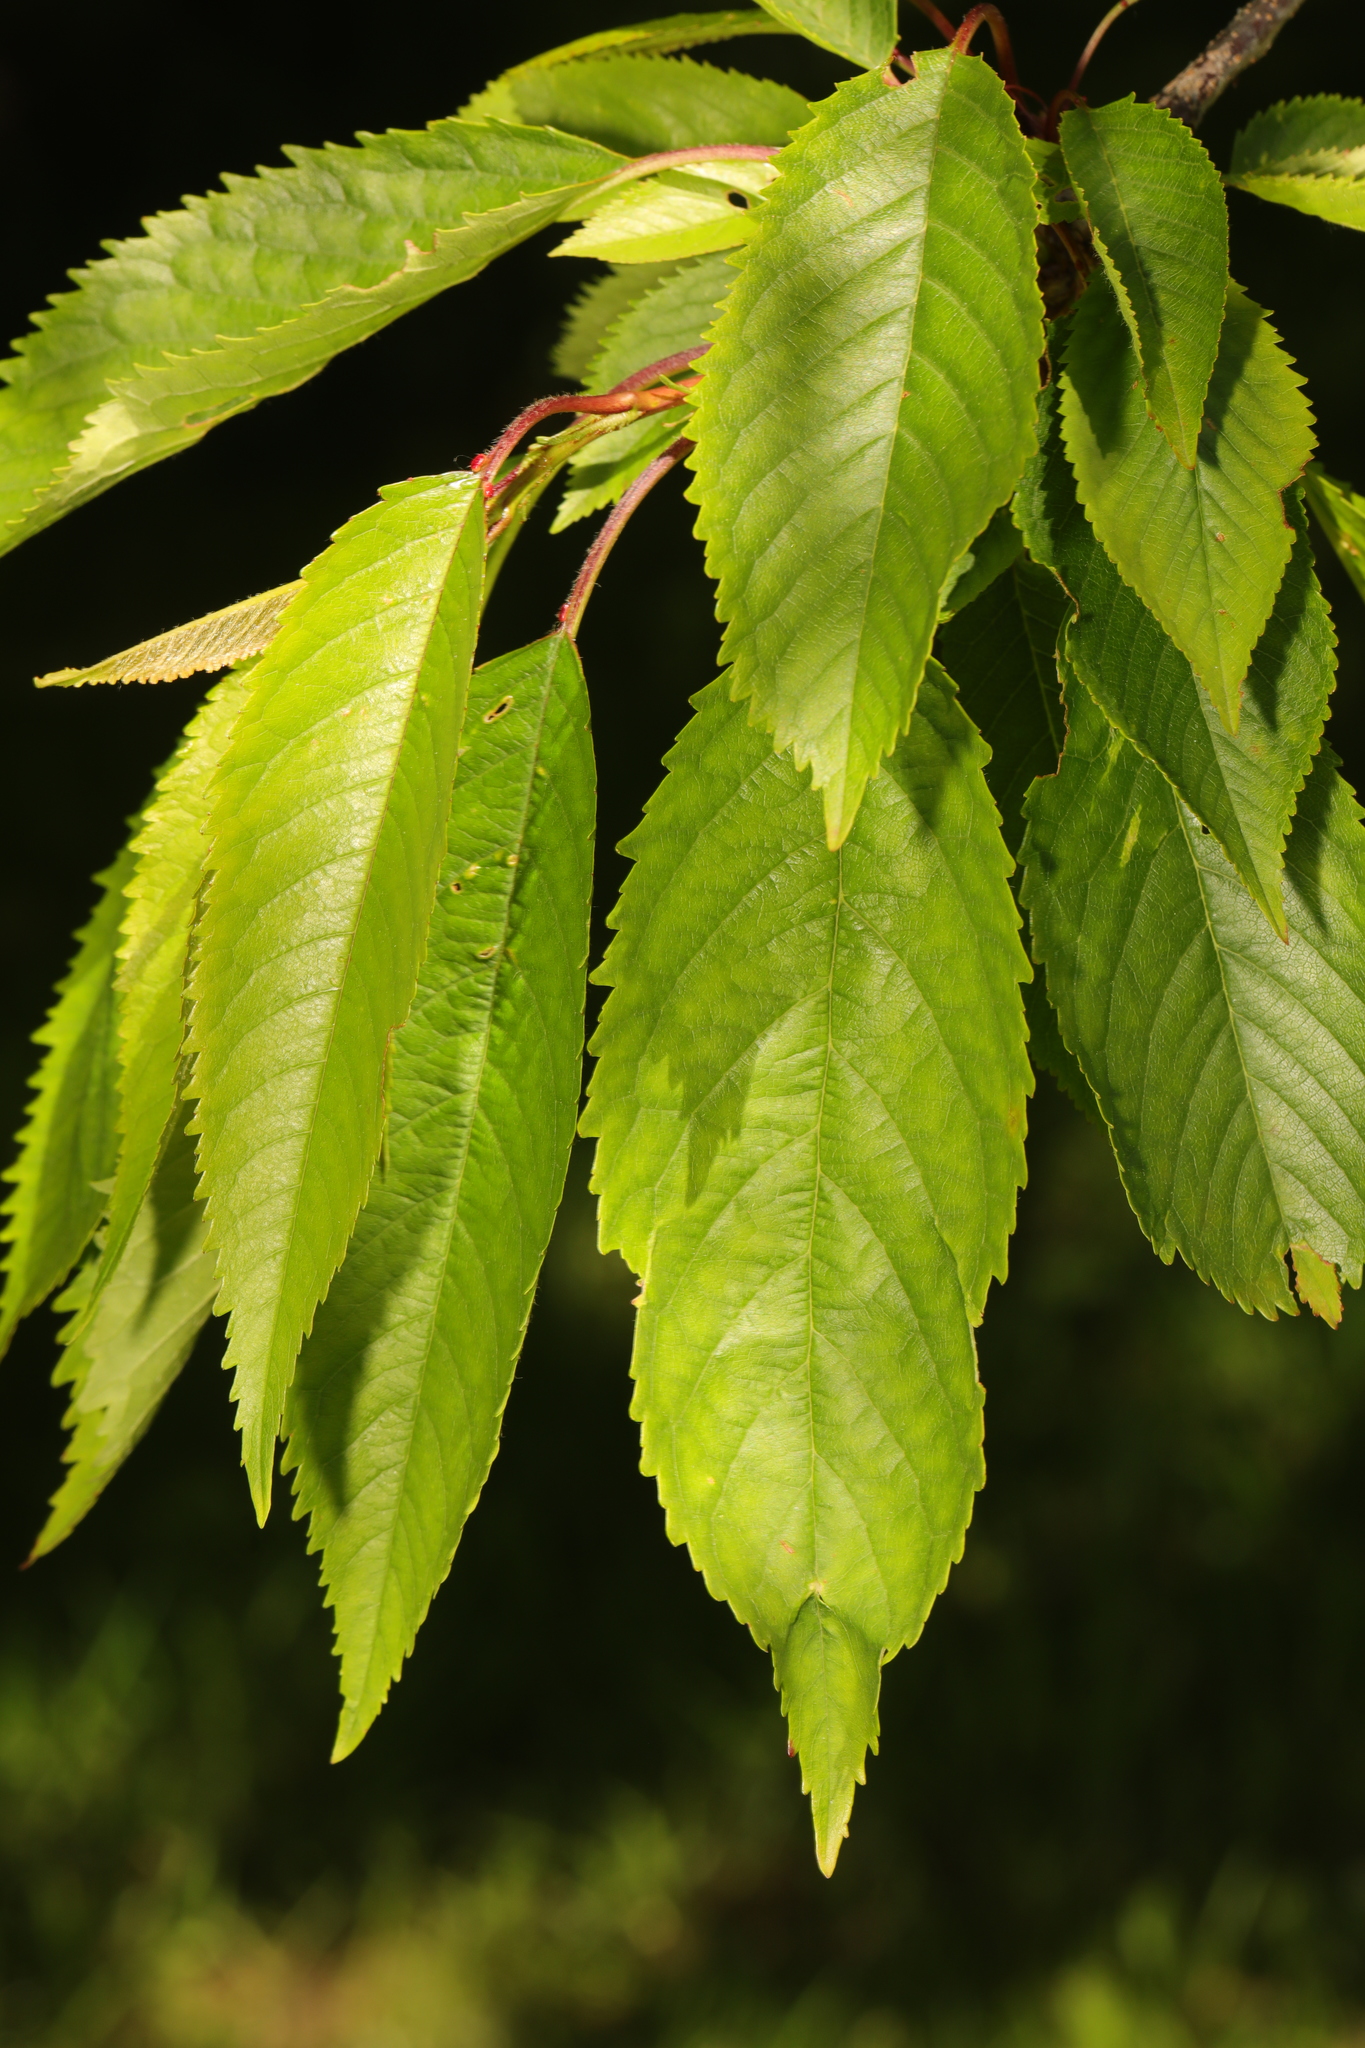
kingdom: Plantae
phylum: Tracheophyta
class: Magnoliopsida
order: Rosales
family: Rosaceae
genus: Prunus
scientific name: Prunus avium
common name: Sweet cherry
